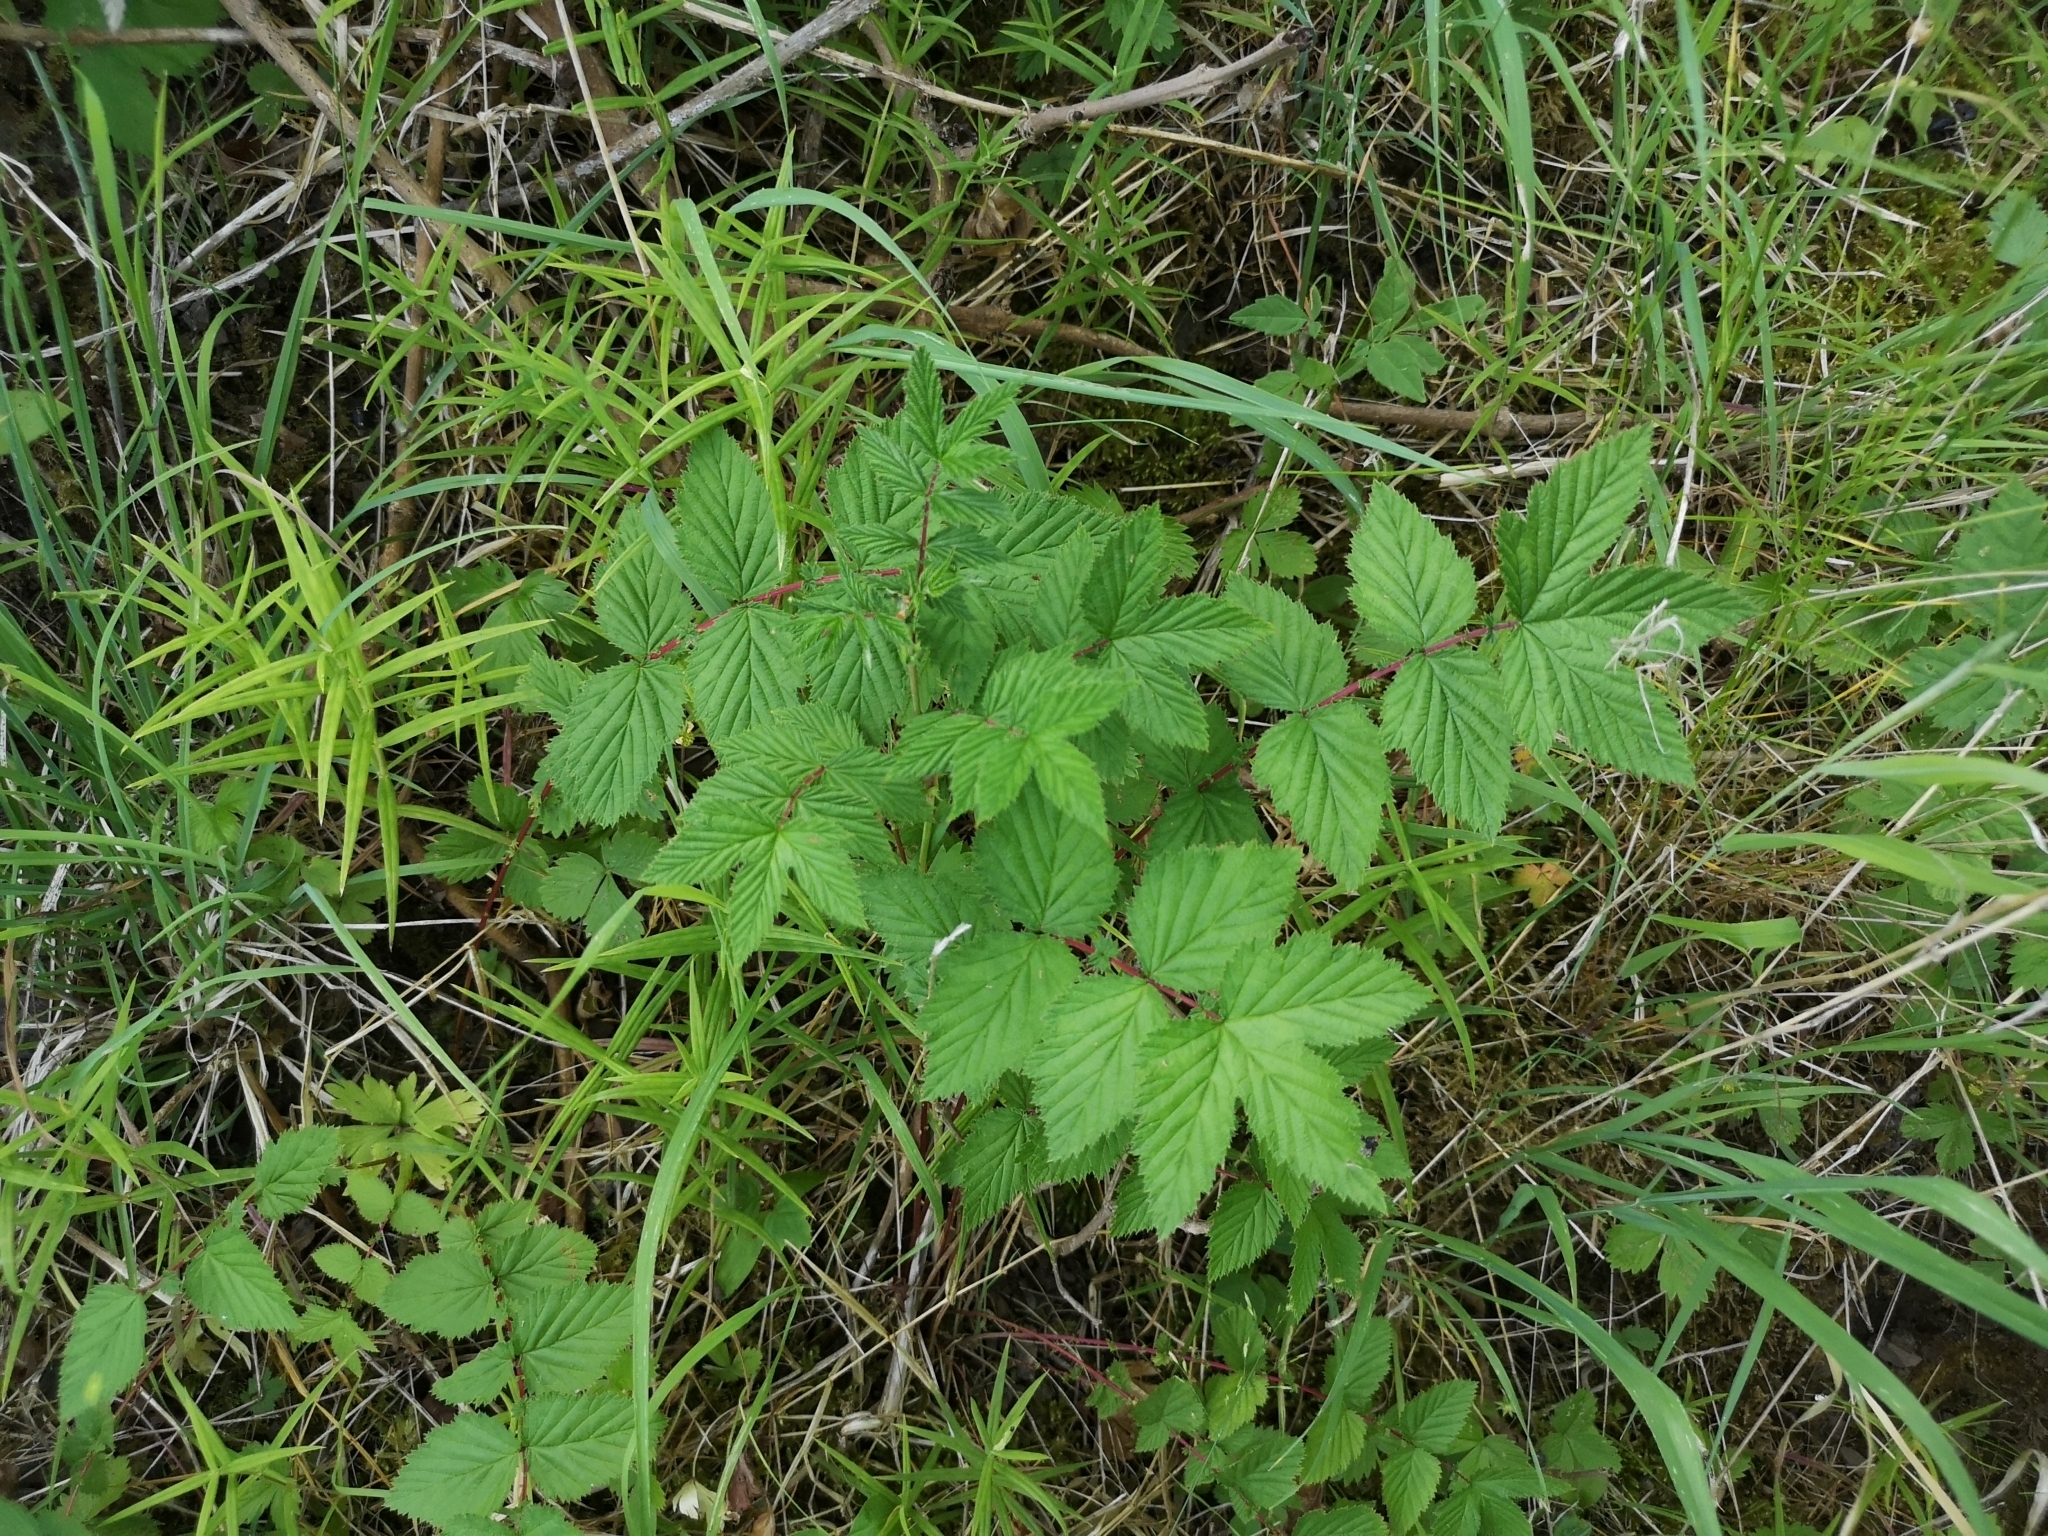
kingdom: Plantae
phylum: Tracheophyta
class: Magnoliopsida
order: Rosales
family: Rosaceae
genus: Filipendula
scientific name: Filipendula ulmaria
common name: Meadowsweet
